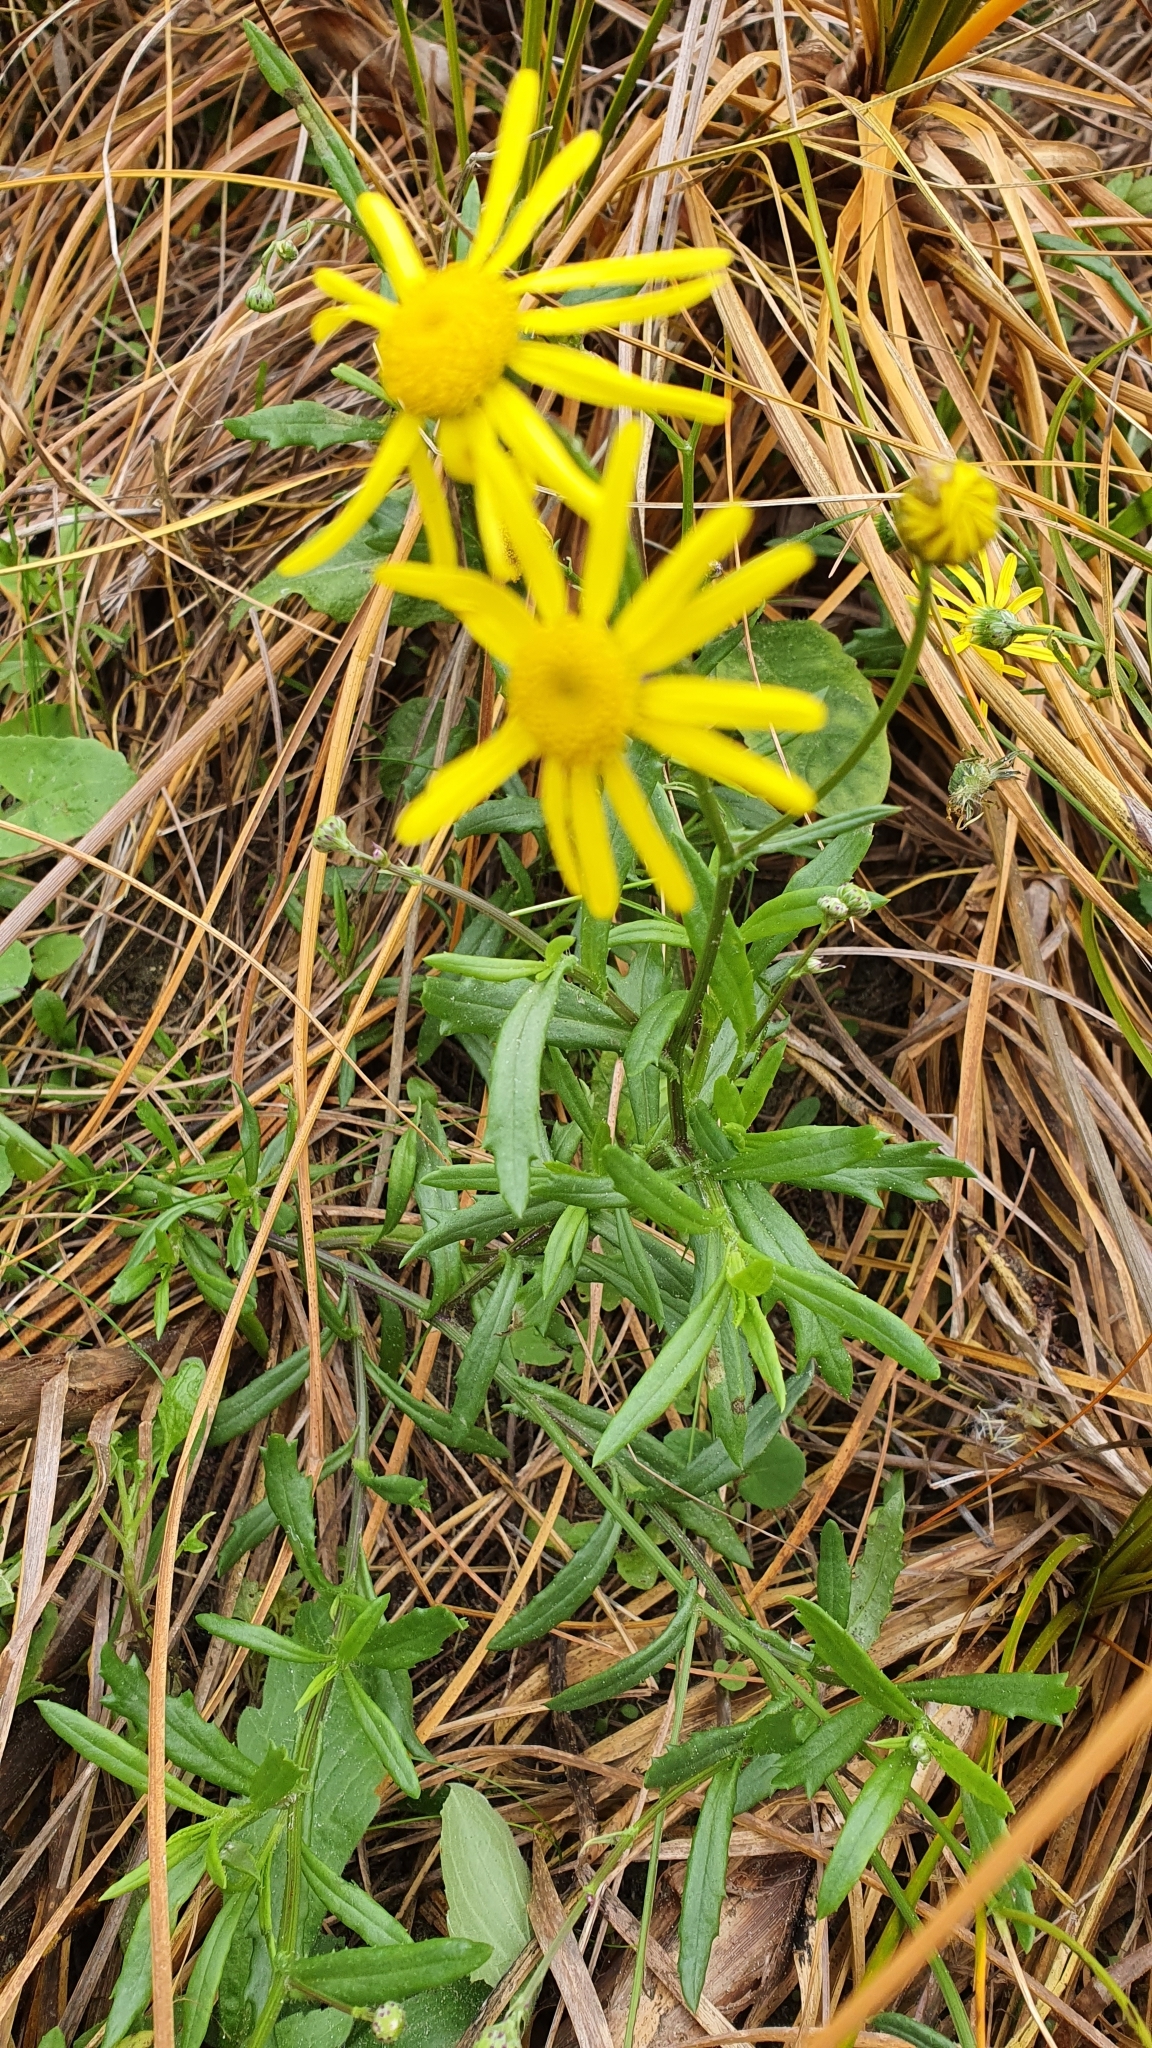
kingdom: Plantae
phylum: Tracheophyta
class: Magnoliopsida
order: Asterales
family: Asteraceae
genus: Senecio
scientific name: Senecio skirrhodon
